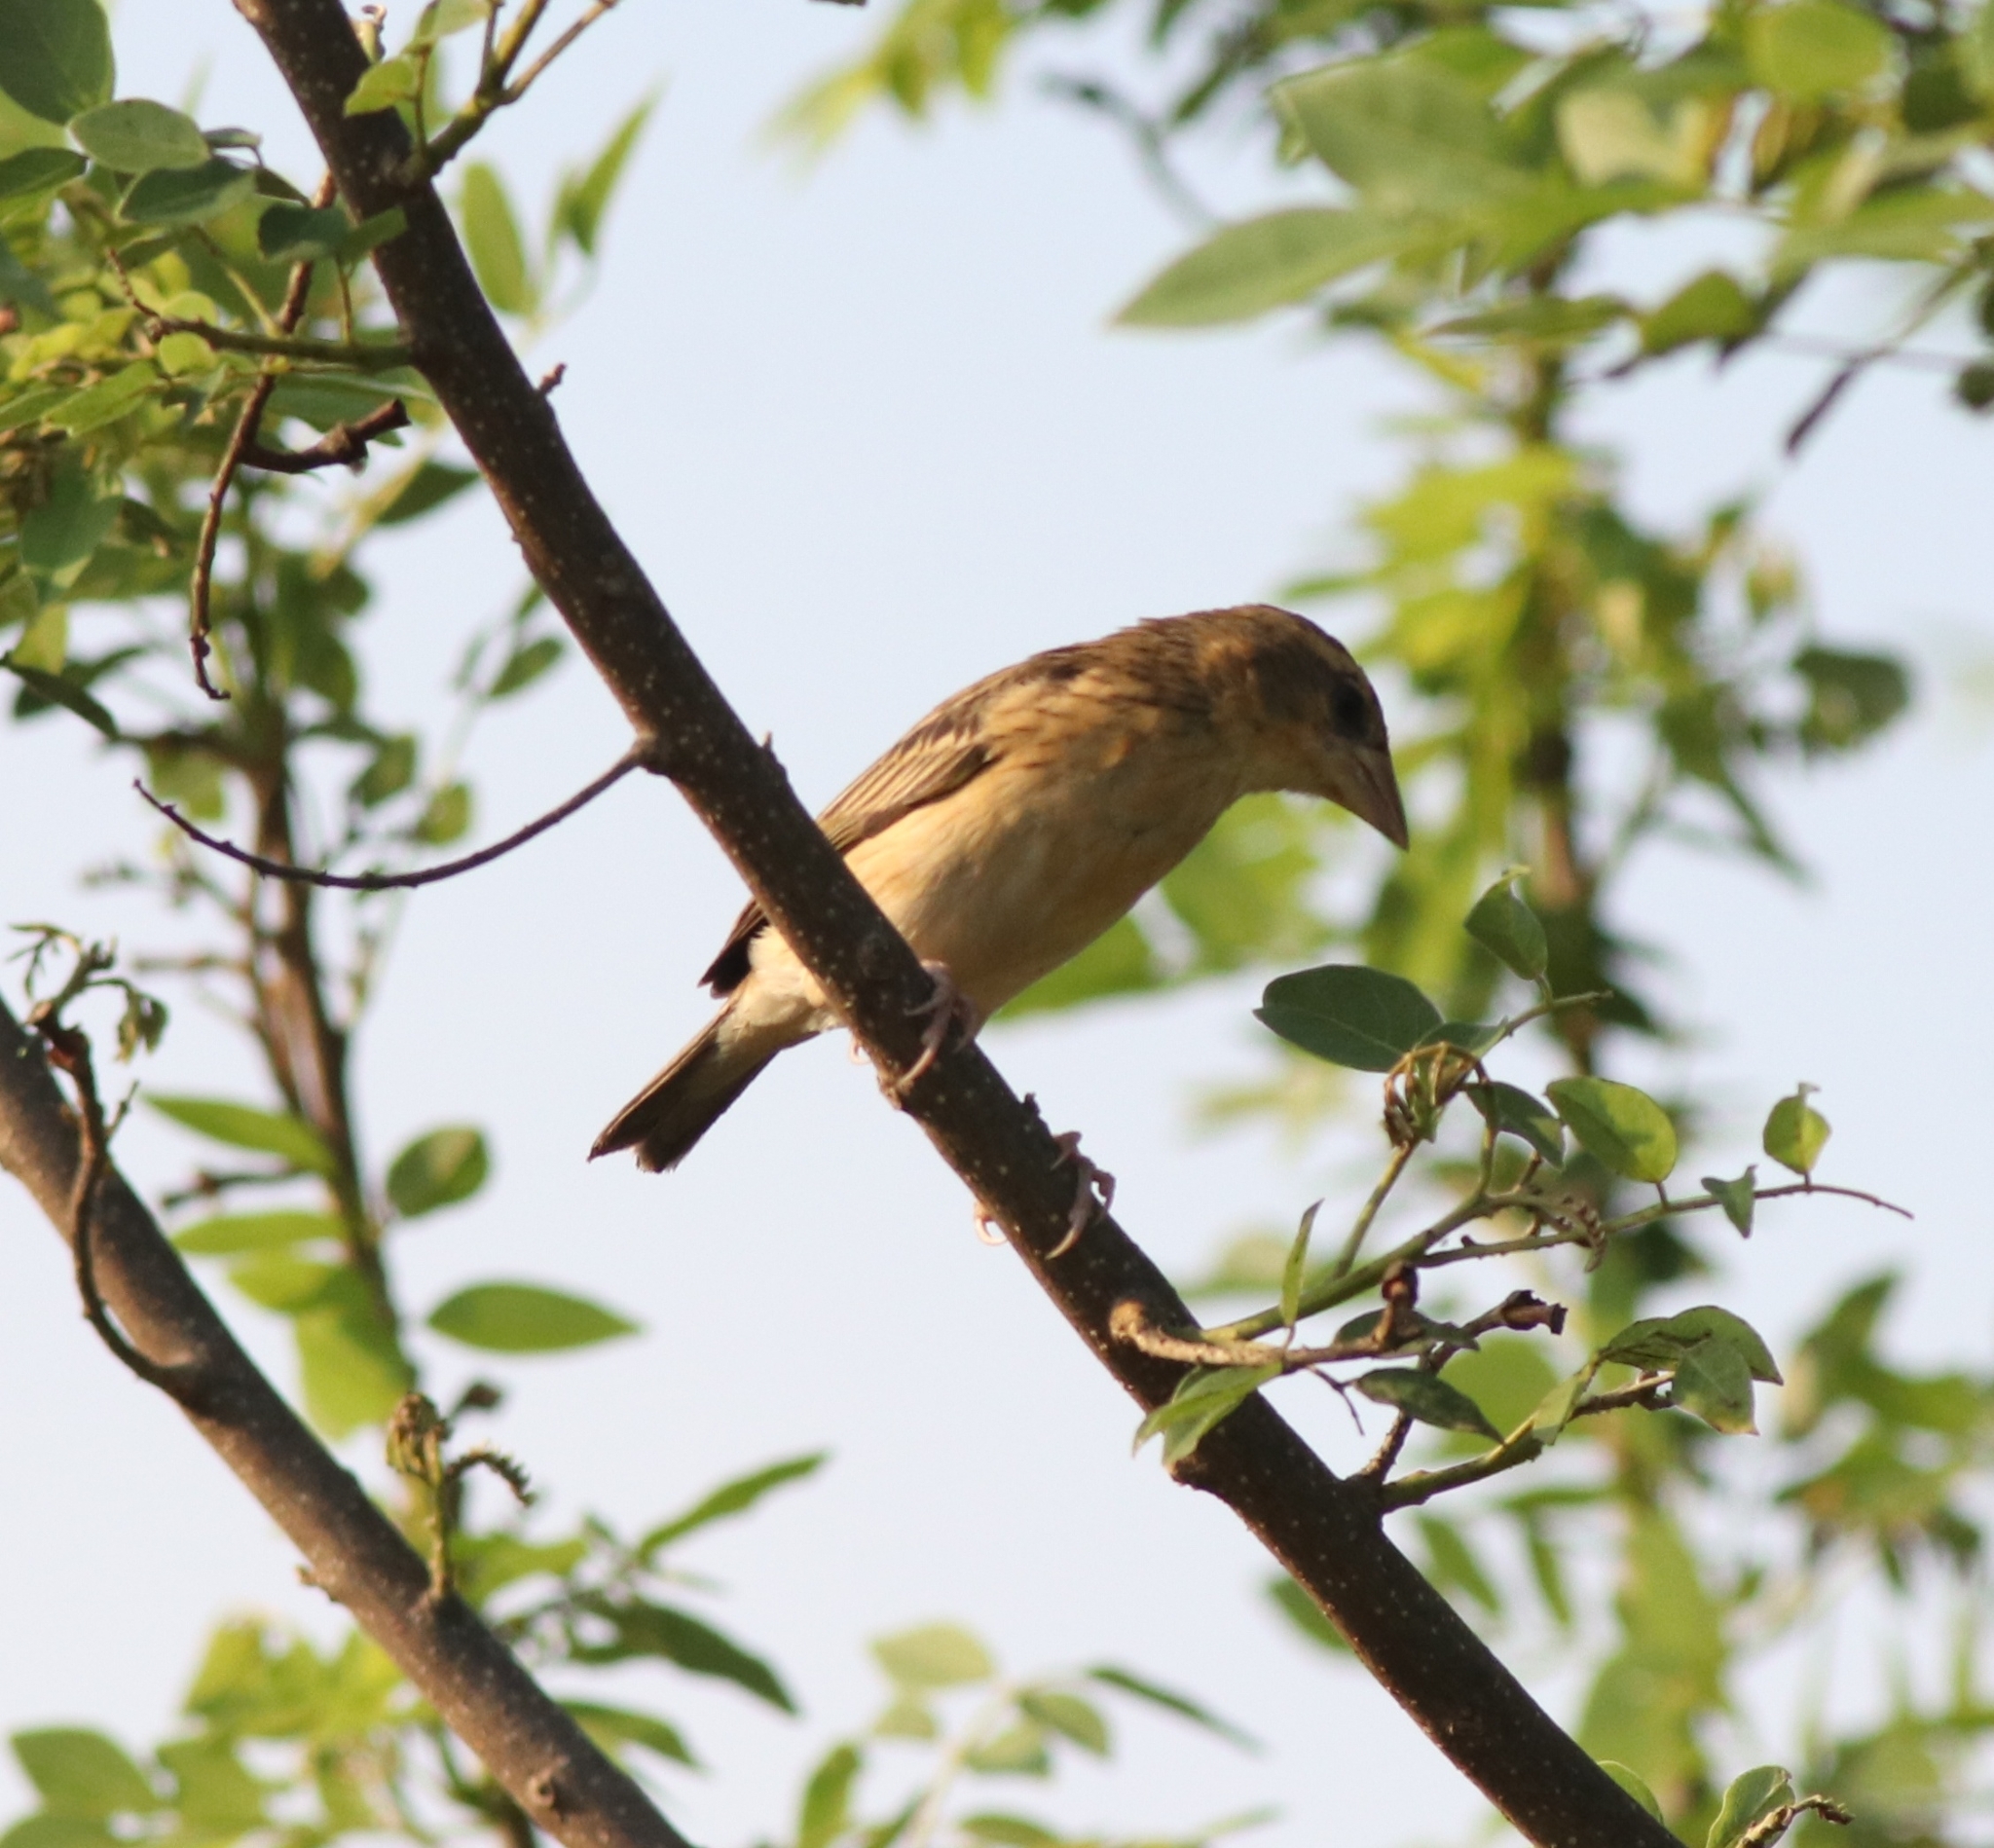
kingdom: Animalia
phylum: Chordata
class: Aves
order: Passeriformes
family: Ploceidae
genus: Ploceus
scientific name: Ploceus philippinus
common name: Baya weaver
